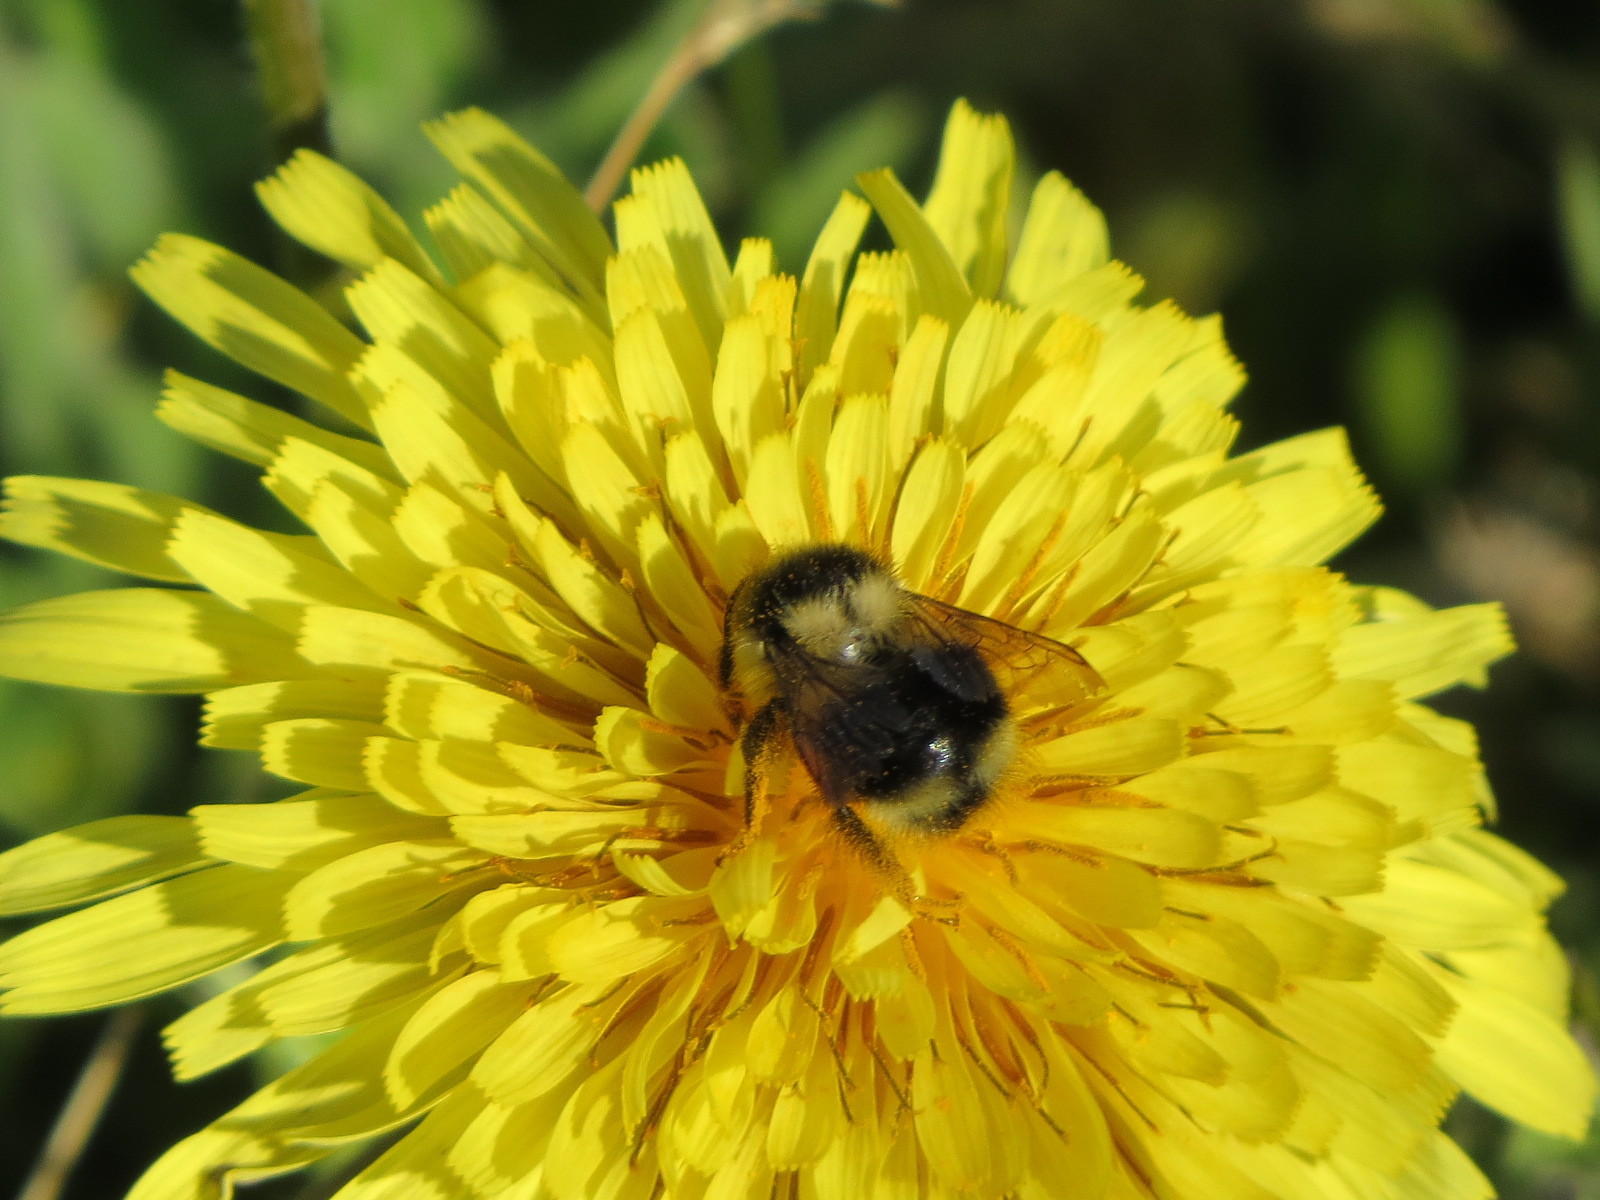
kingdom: Animalia
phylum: Arthropoda
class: Insecta
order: Hymenoptera
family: Apidae
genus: Bombus
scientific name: Bombus melanopygus
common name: Black tail bumble bee
